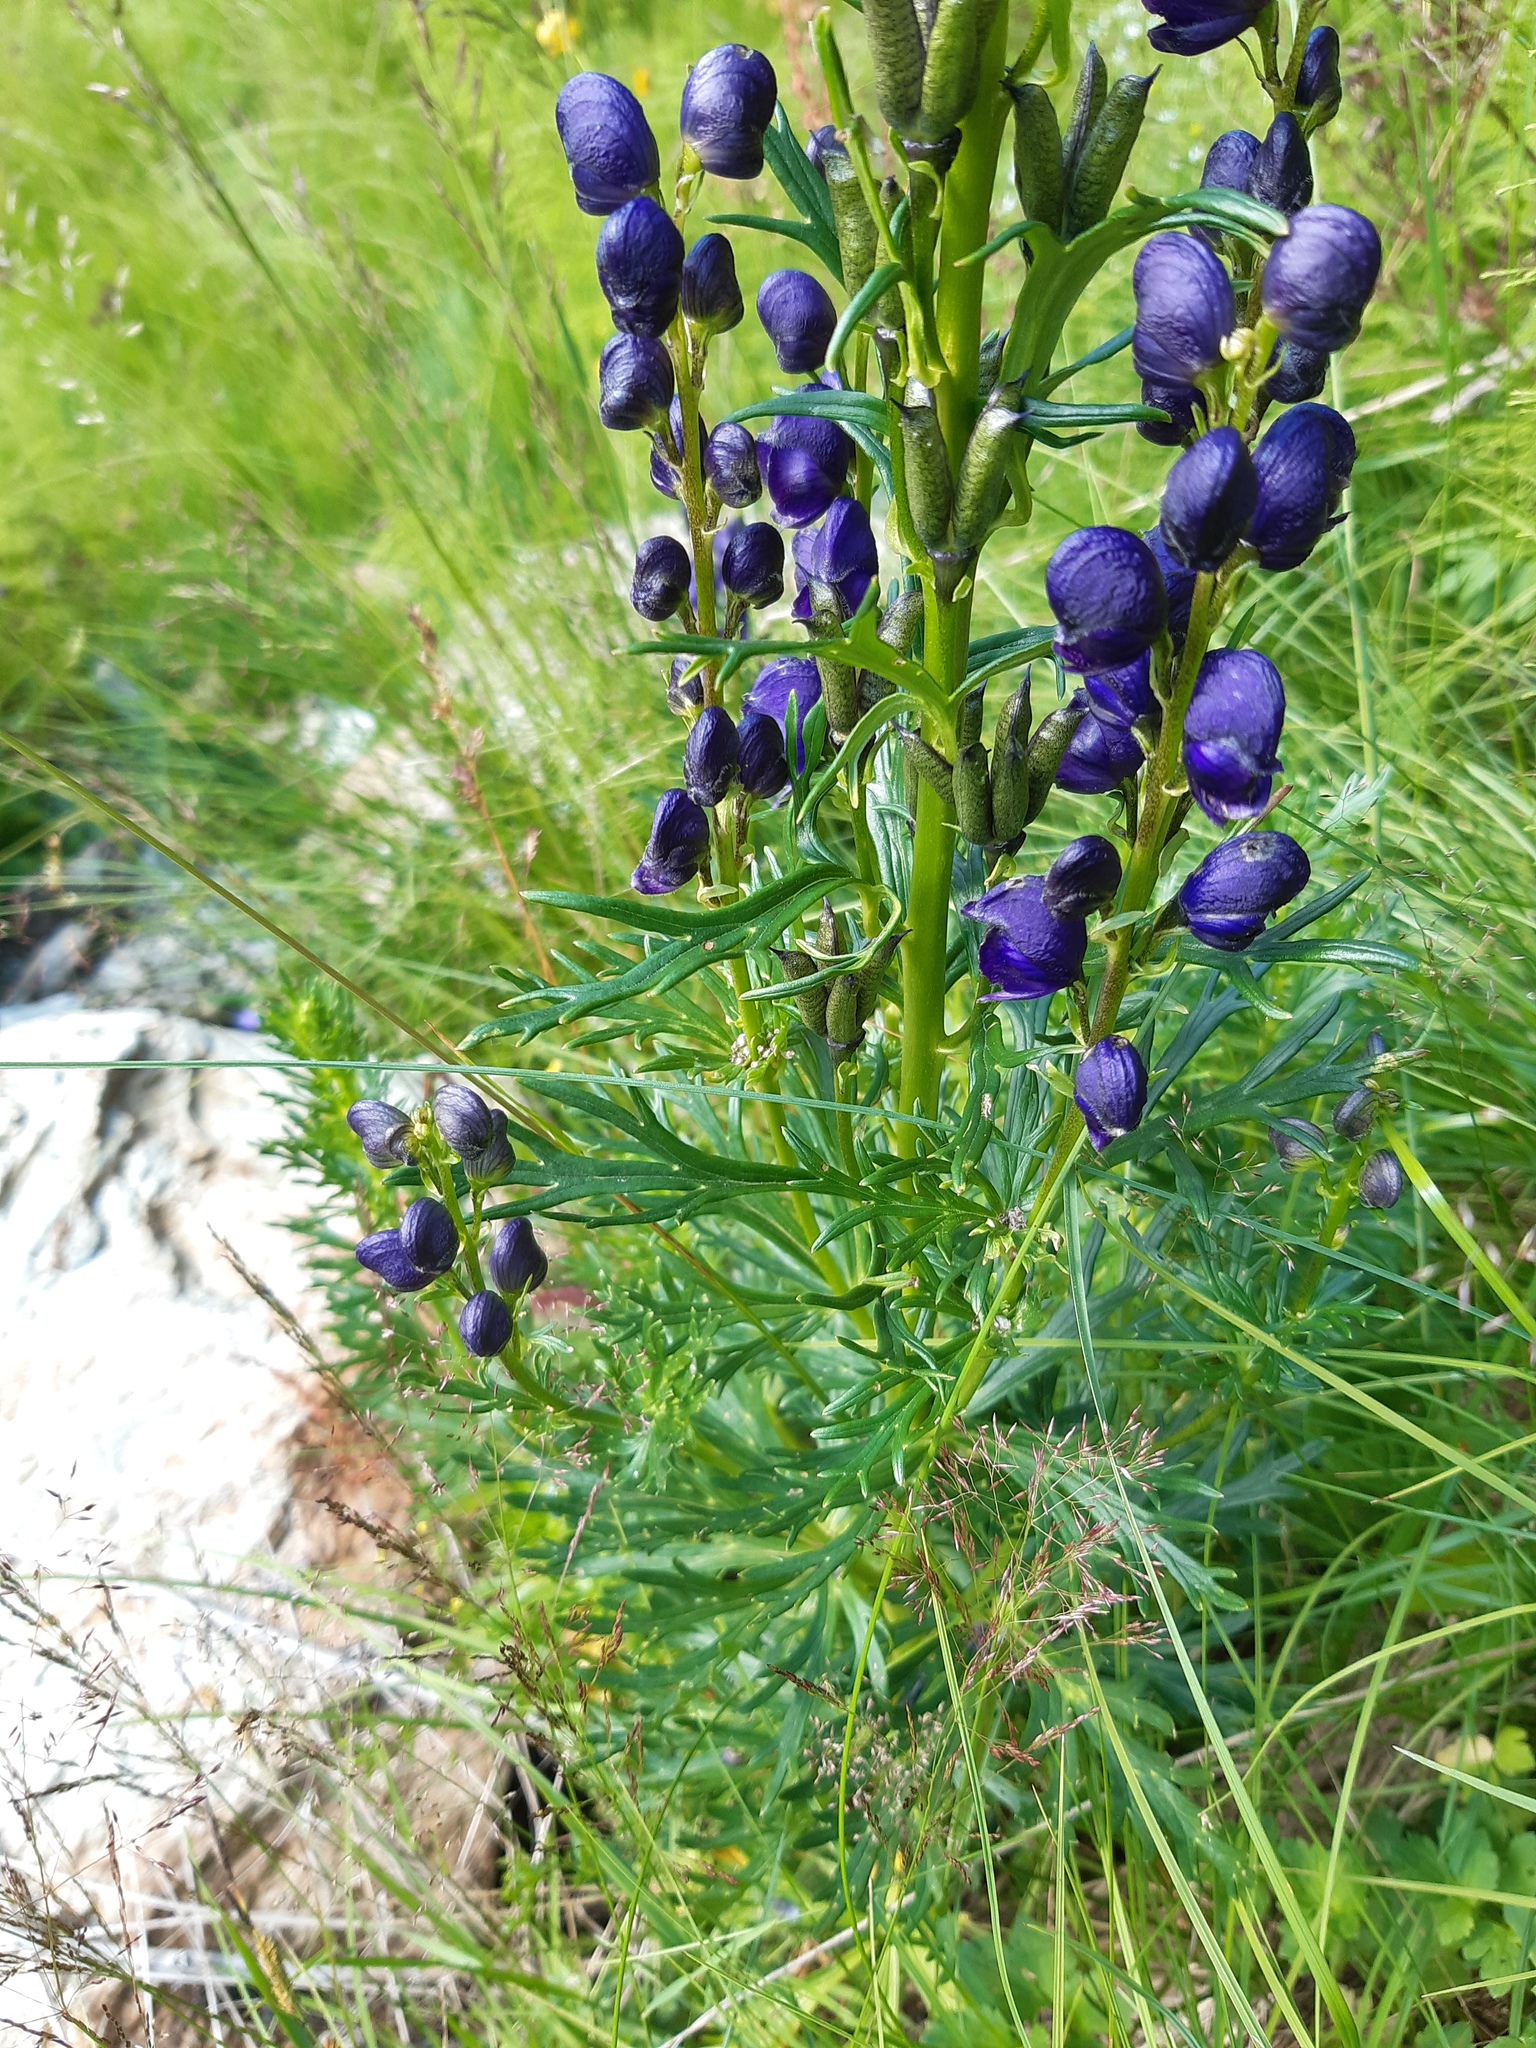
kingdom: Plantae
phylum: Tracheophyta
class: Magnoliopsida
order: Ranunculales
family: Ranunculaceae
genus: Aconitum
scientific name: Aconitum tauricum
